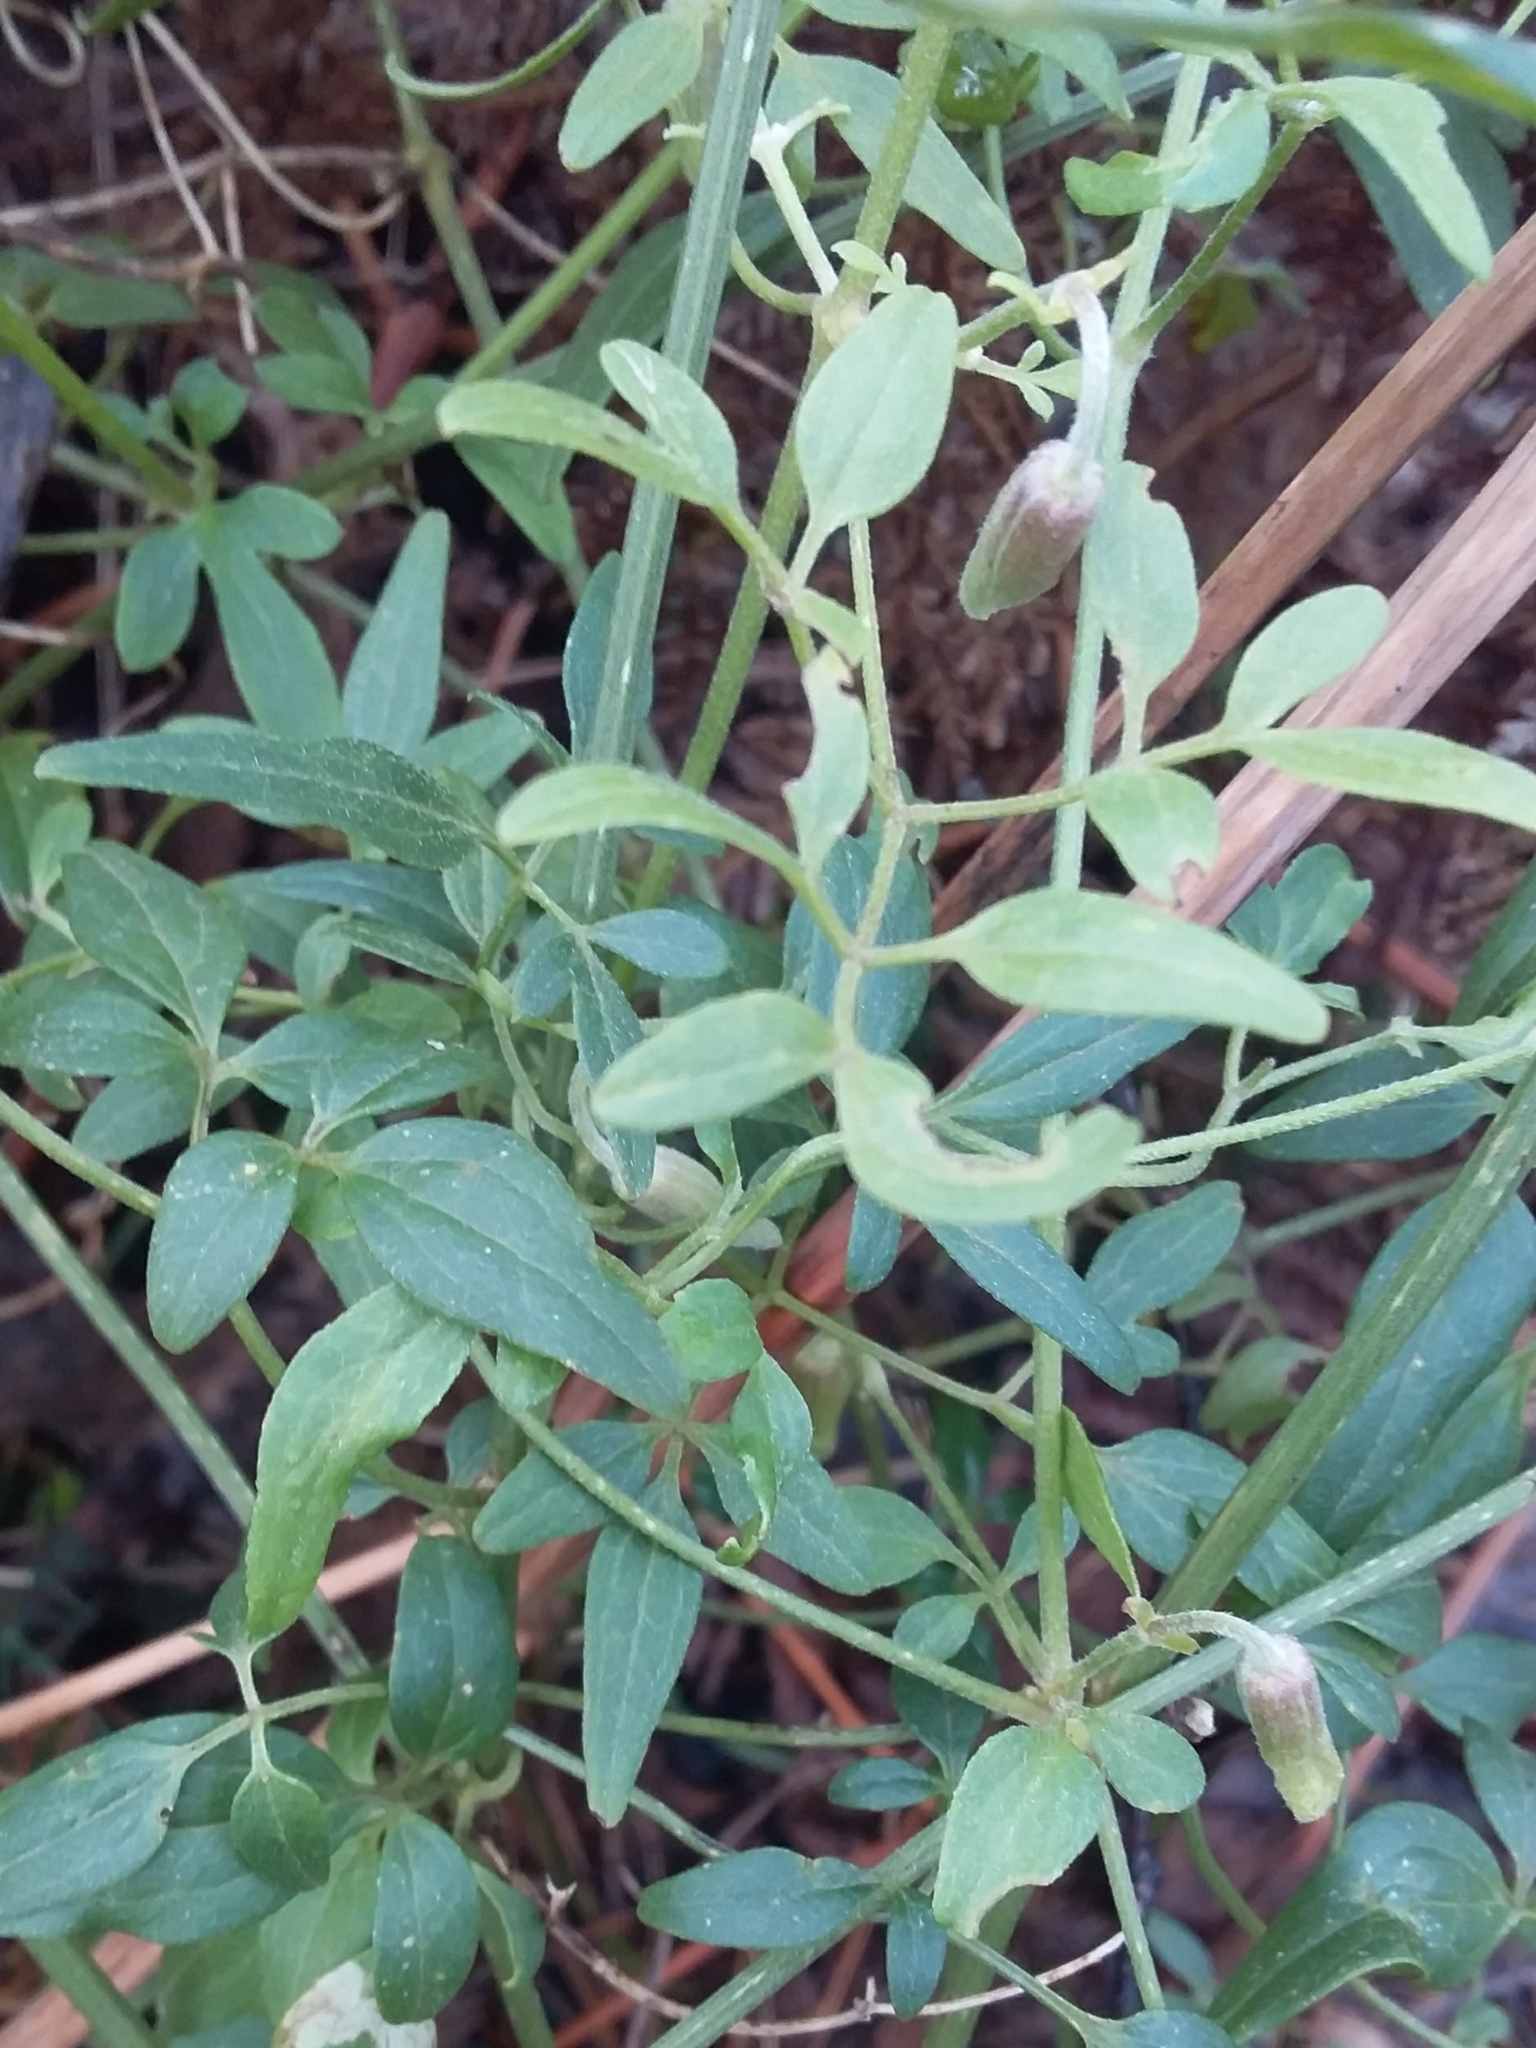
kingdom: Plantae
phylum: Tracheophyta
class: Magnoliopsida
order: Ranunculales
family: Ranunculaceae
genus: Clematis
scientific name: Clematis microphylla
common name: Headachevine
